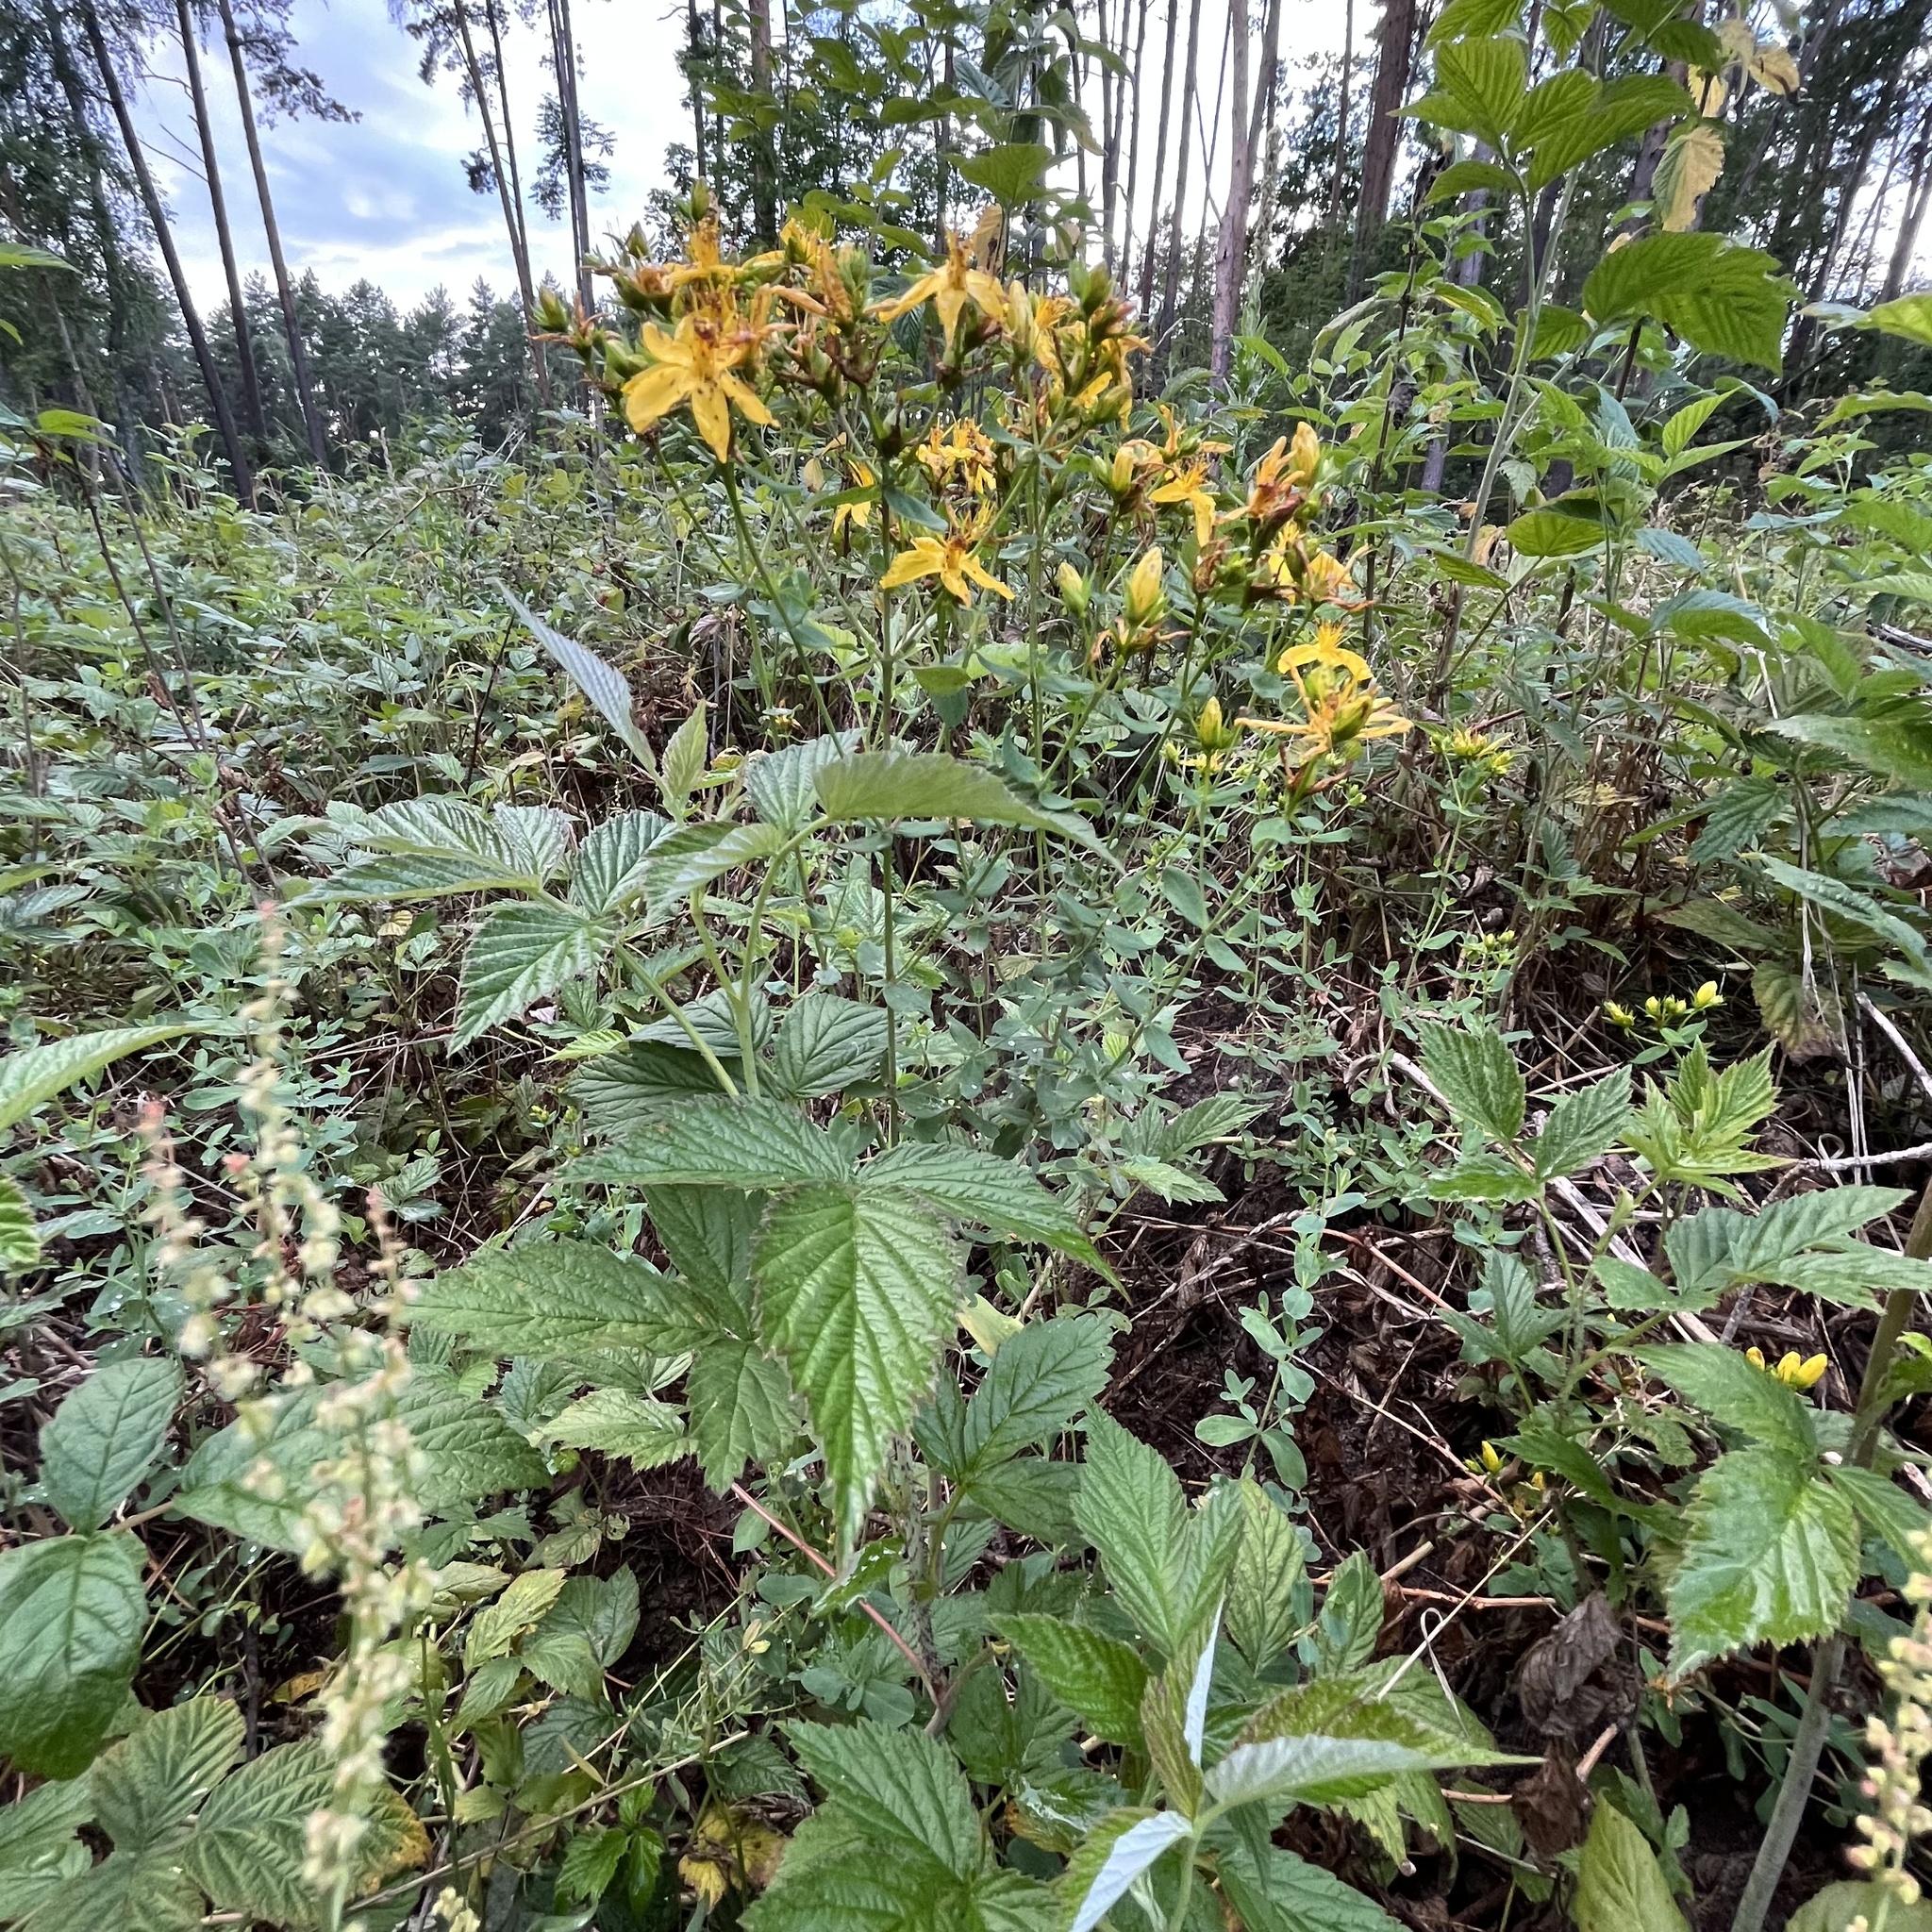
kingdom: Plantae
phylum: Tracheophyta
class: Magnoliopsida
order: Malpighiales
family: Hypericaceae
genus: Hypericum
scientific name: Hypericum perforatum
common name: Common st. johnswort
